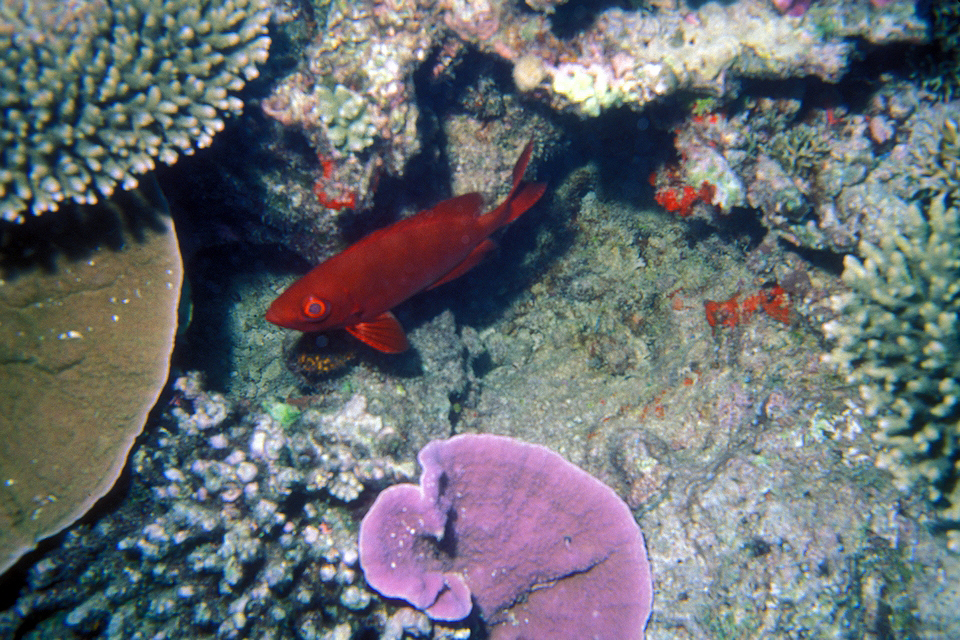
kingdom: Animalia
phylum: Chordata
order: Perciformes
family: Priacanthidae
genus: Priacanthus
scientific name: Priacanthus hamrur
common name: Moontail bullseye
